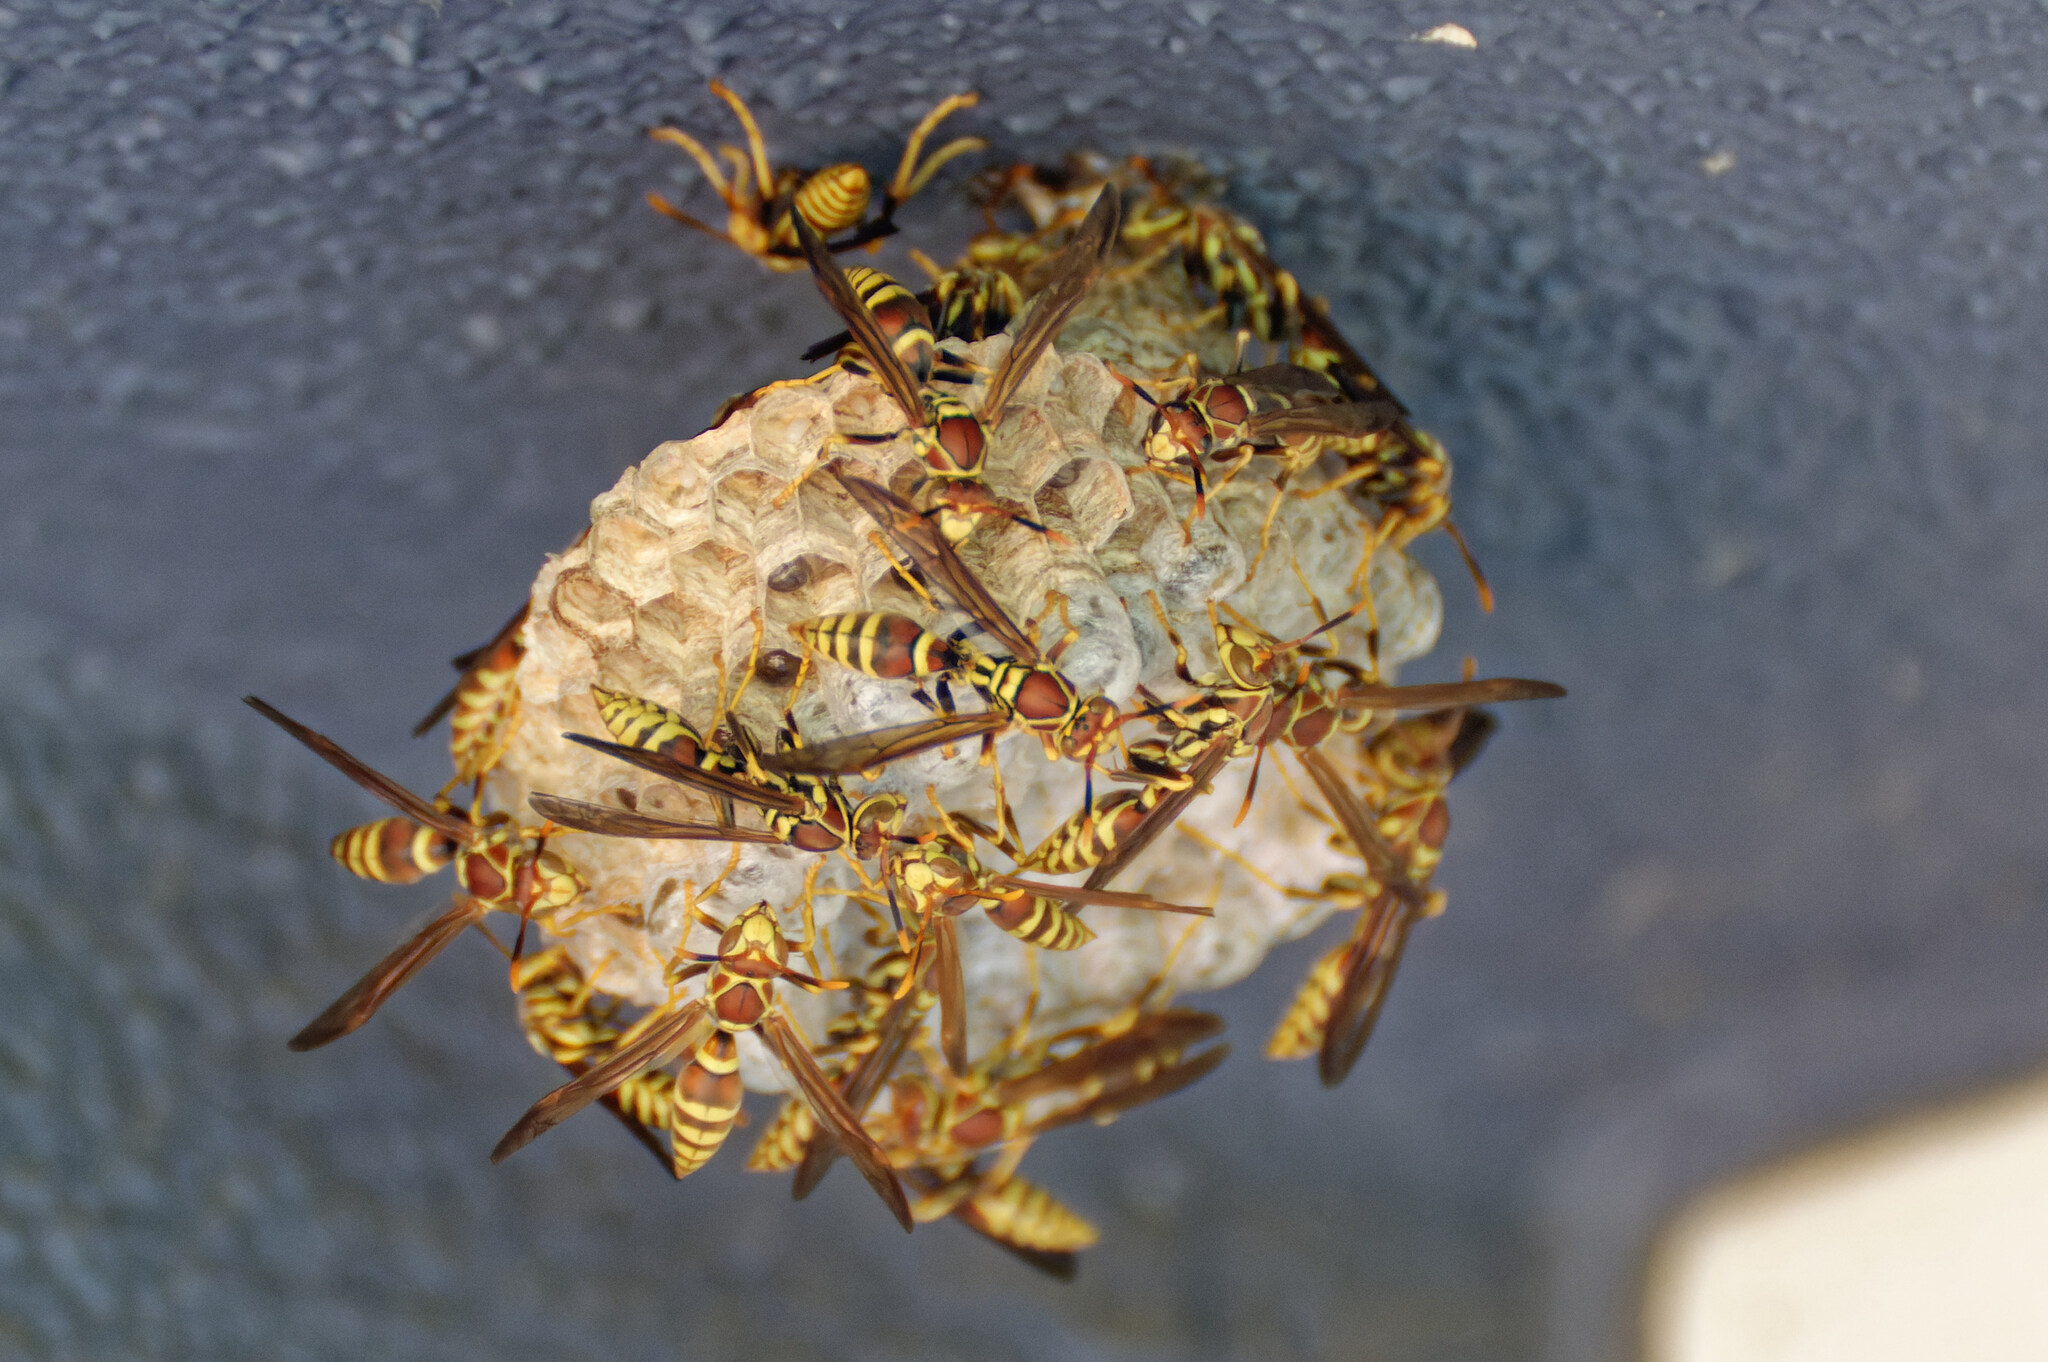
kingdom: Animalia
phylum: Arthropoda
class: Insecta
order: Hymenoptera
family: Eumenidae
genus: Polistes
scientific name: Polistes exclamans
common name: Paper wasp
